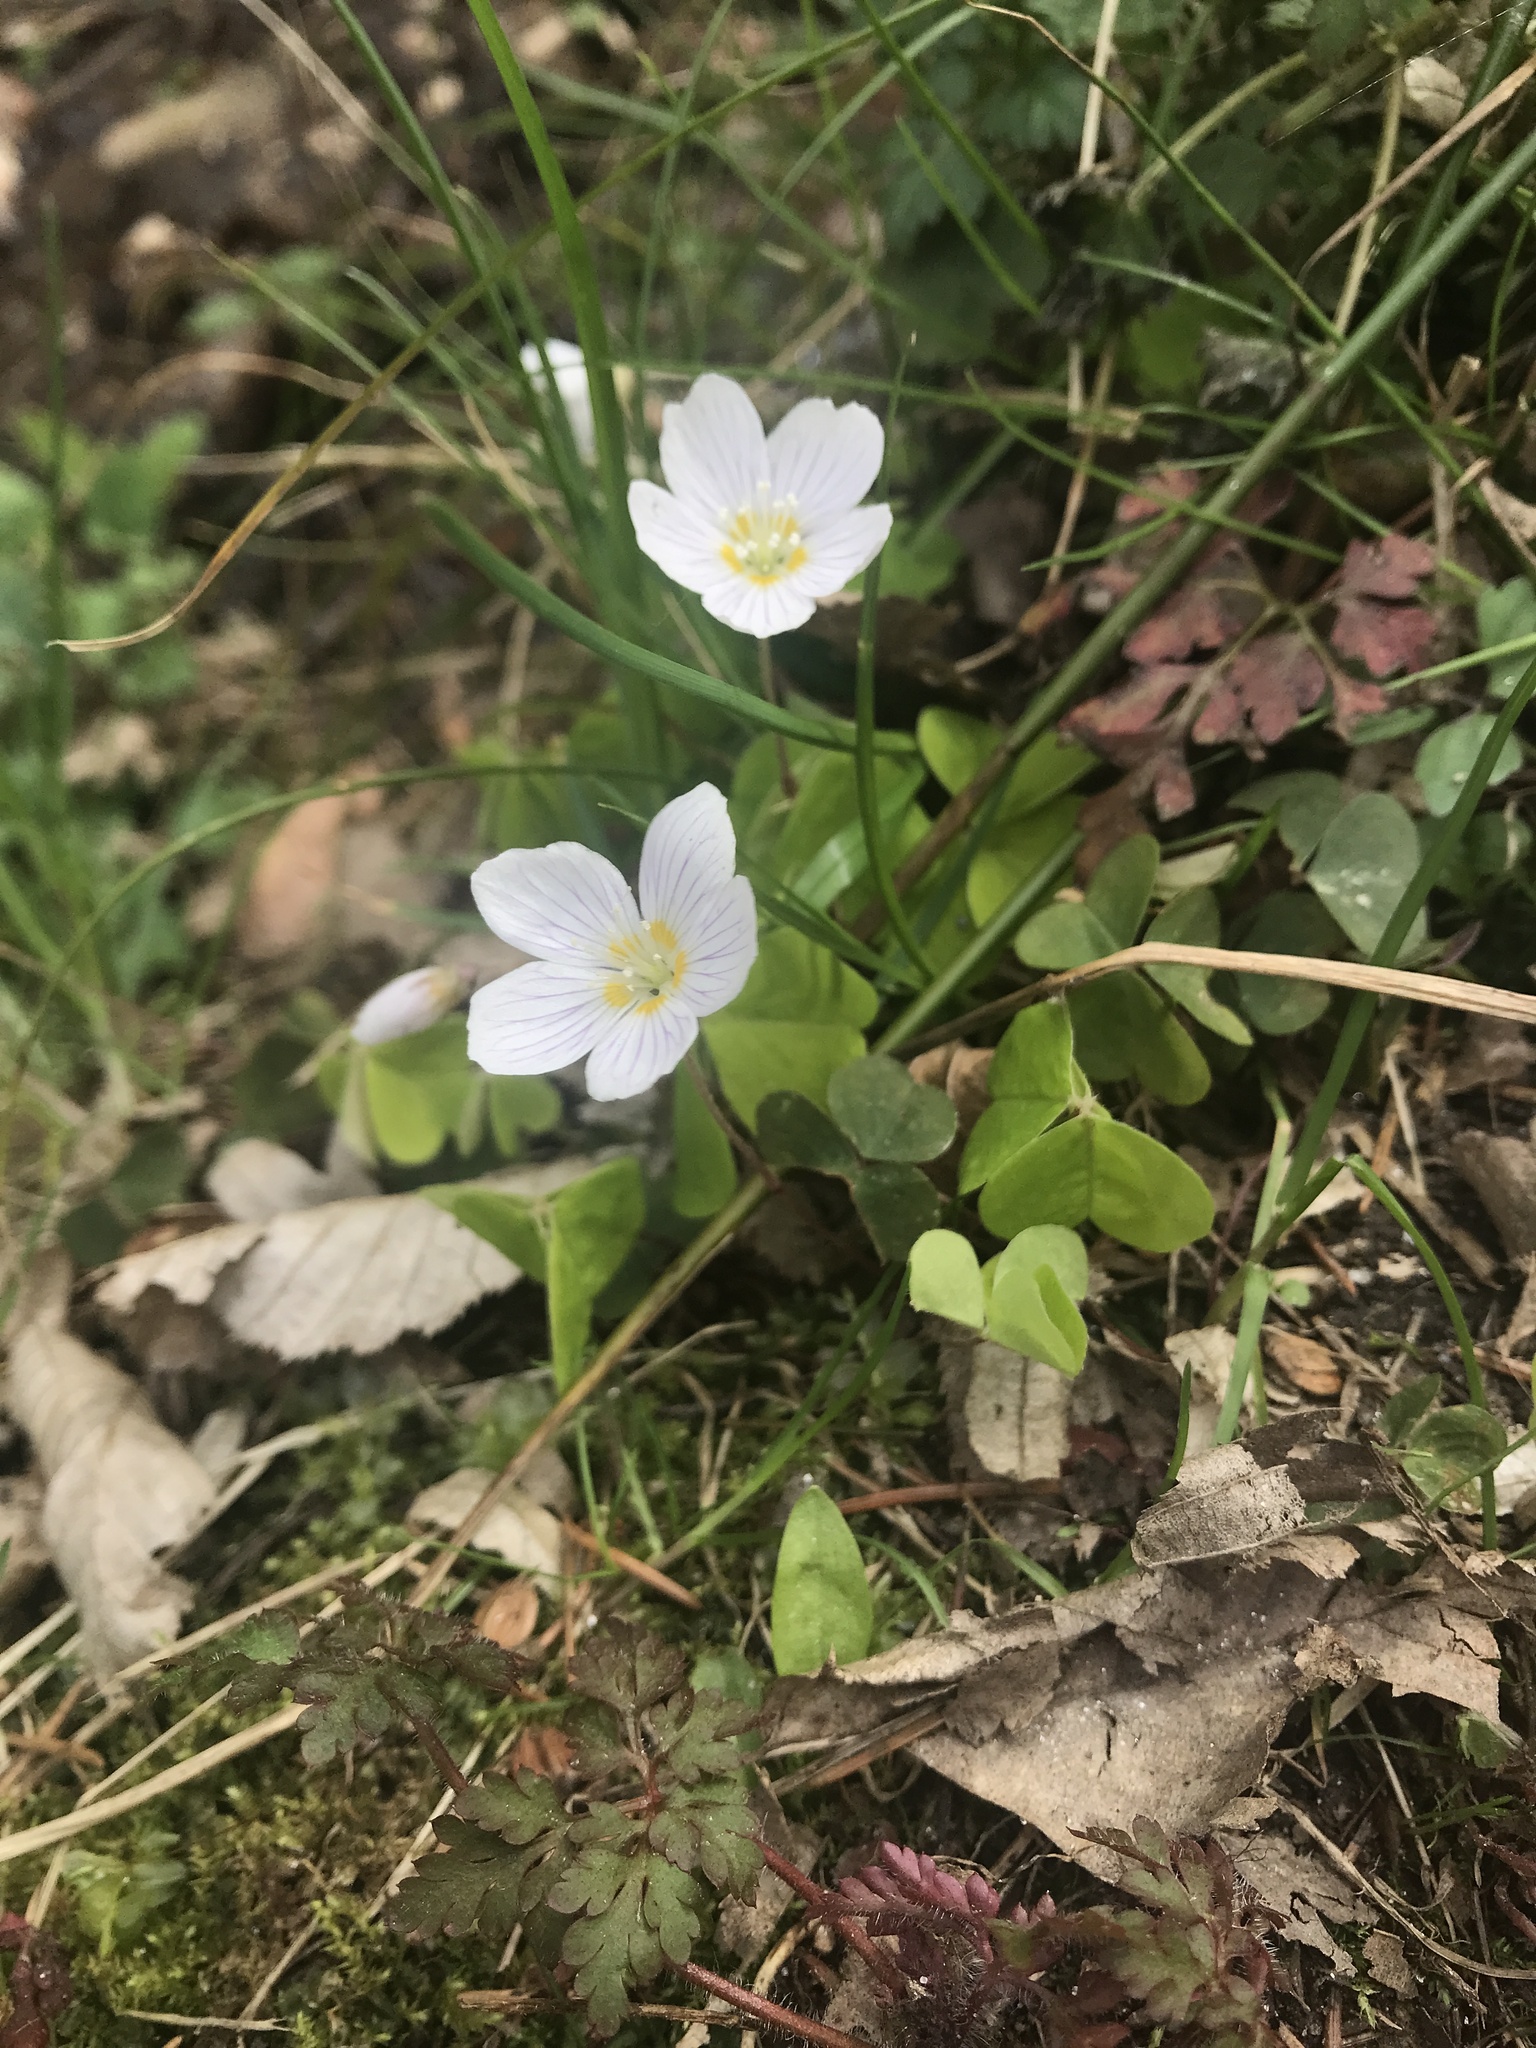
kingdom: Plantae
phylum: Tracheophyta
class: Magnoliopsida
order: Oxalidales
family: Oxalidaceae
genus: Oxalis
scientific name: Oxalis acetosella
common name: Wood-sorrel
